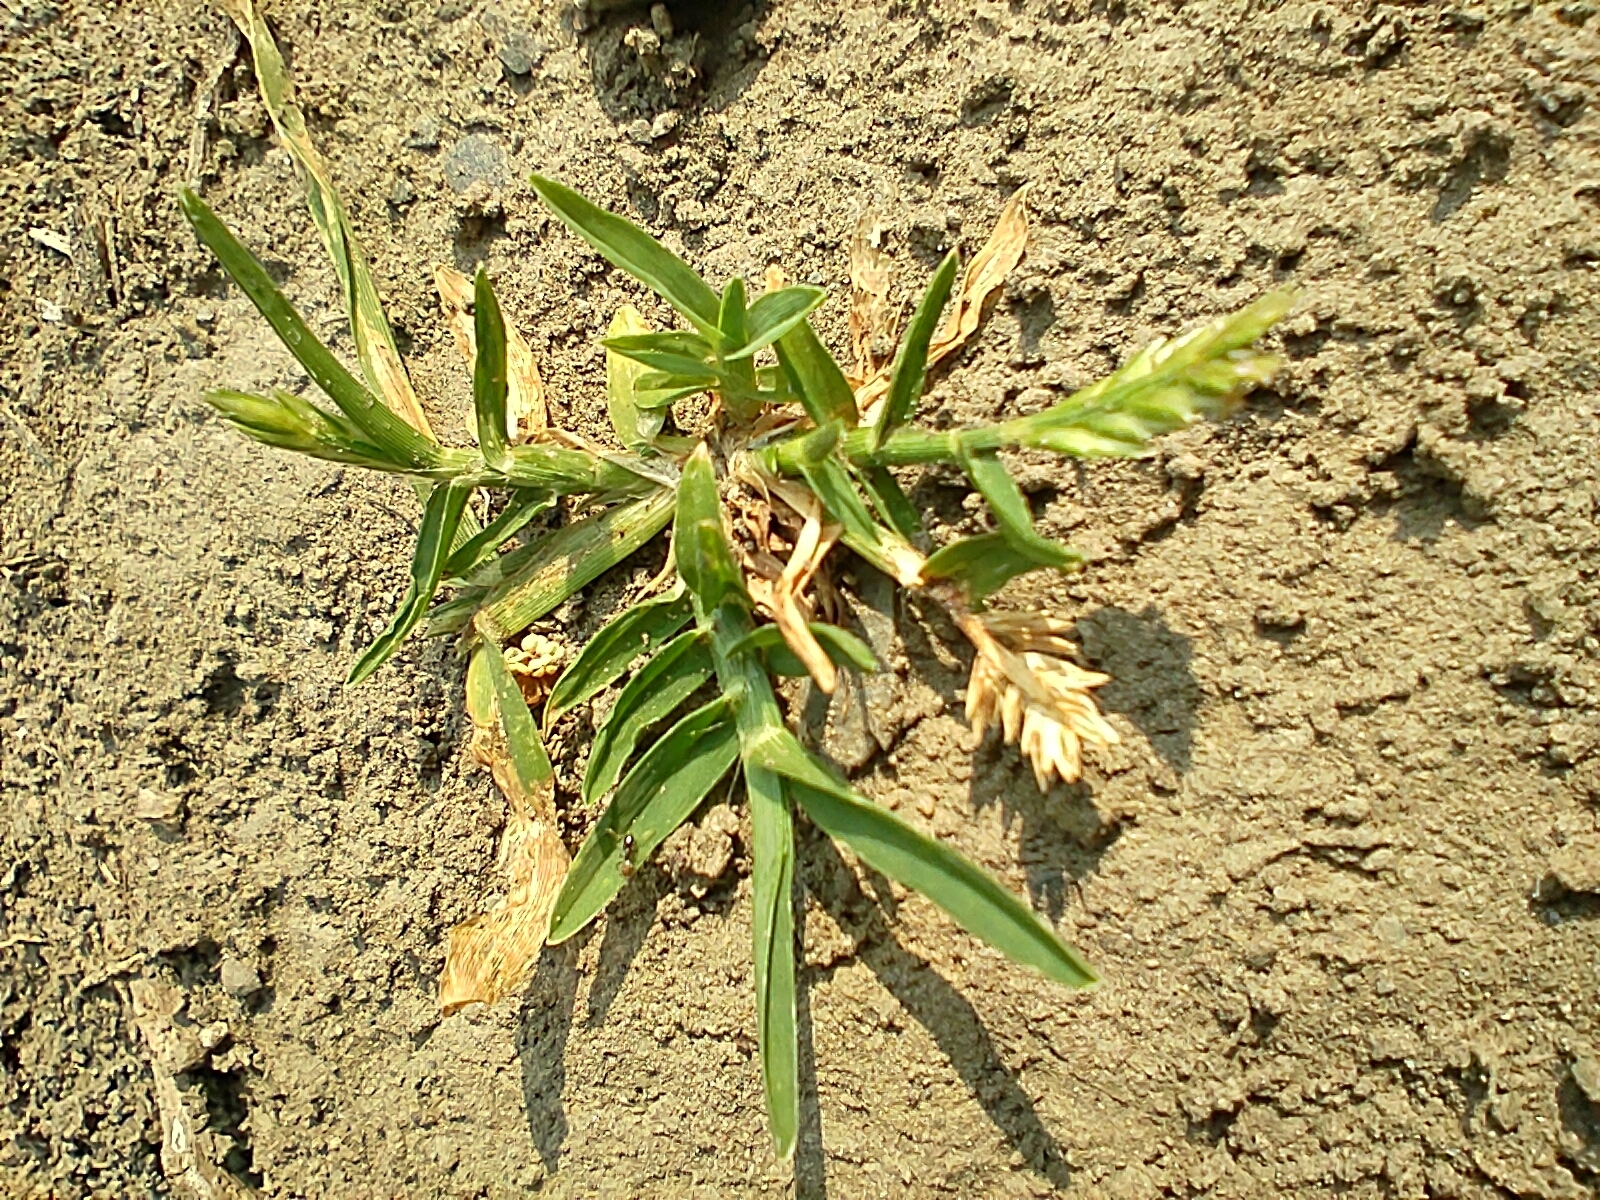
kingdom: Plantae
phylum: Tracheophyta
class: Liliopsida
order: Poales
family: Poaceae
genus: Eleusine
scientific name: Eleusine indica
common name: Yard-grass
